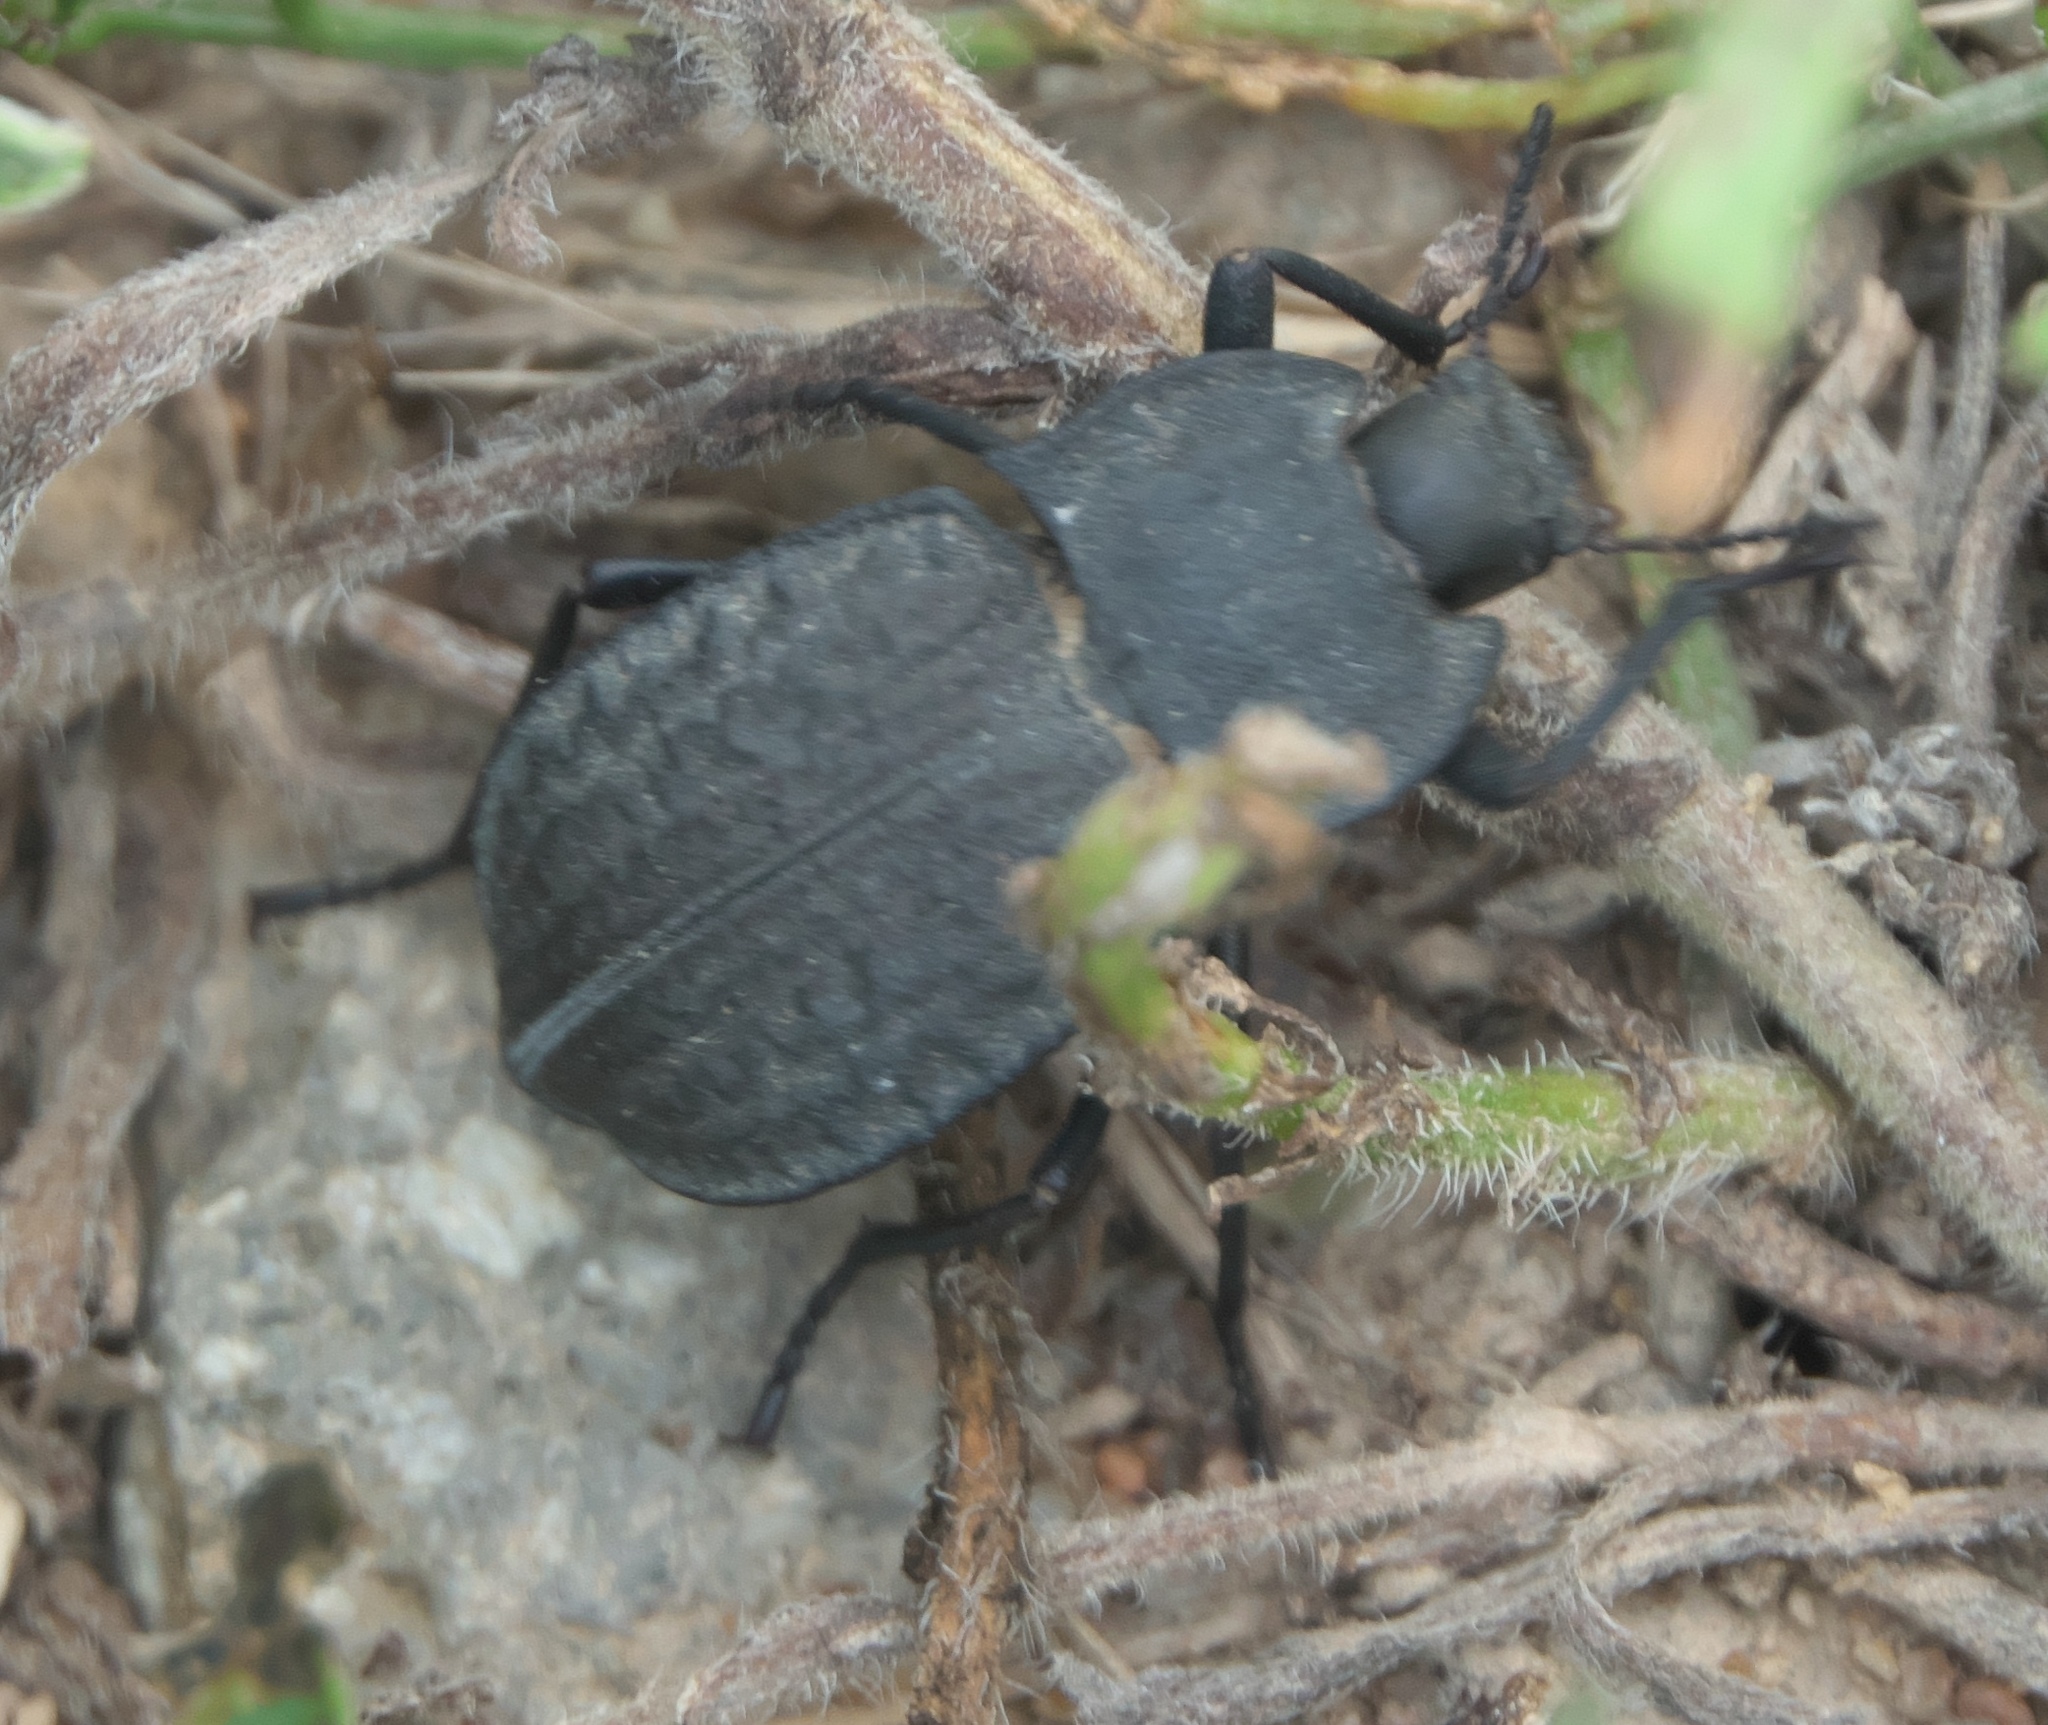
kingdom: Animalia
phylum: Arthropoda
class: Insecta
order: Coleoptera
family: Tenebrionidae
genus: Stenomorpha
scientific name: Stenomorpha opaca
